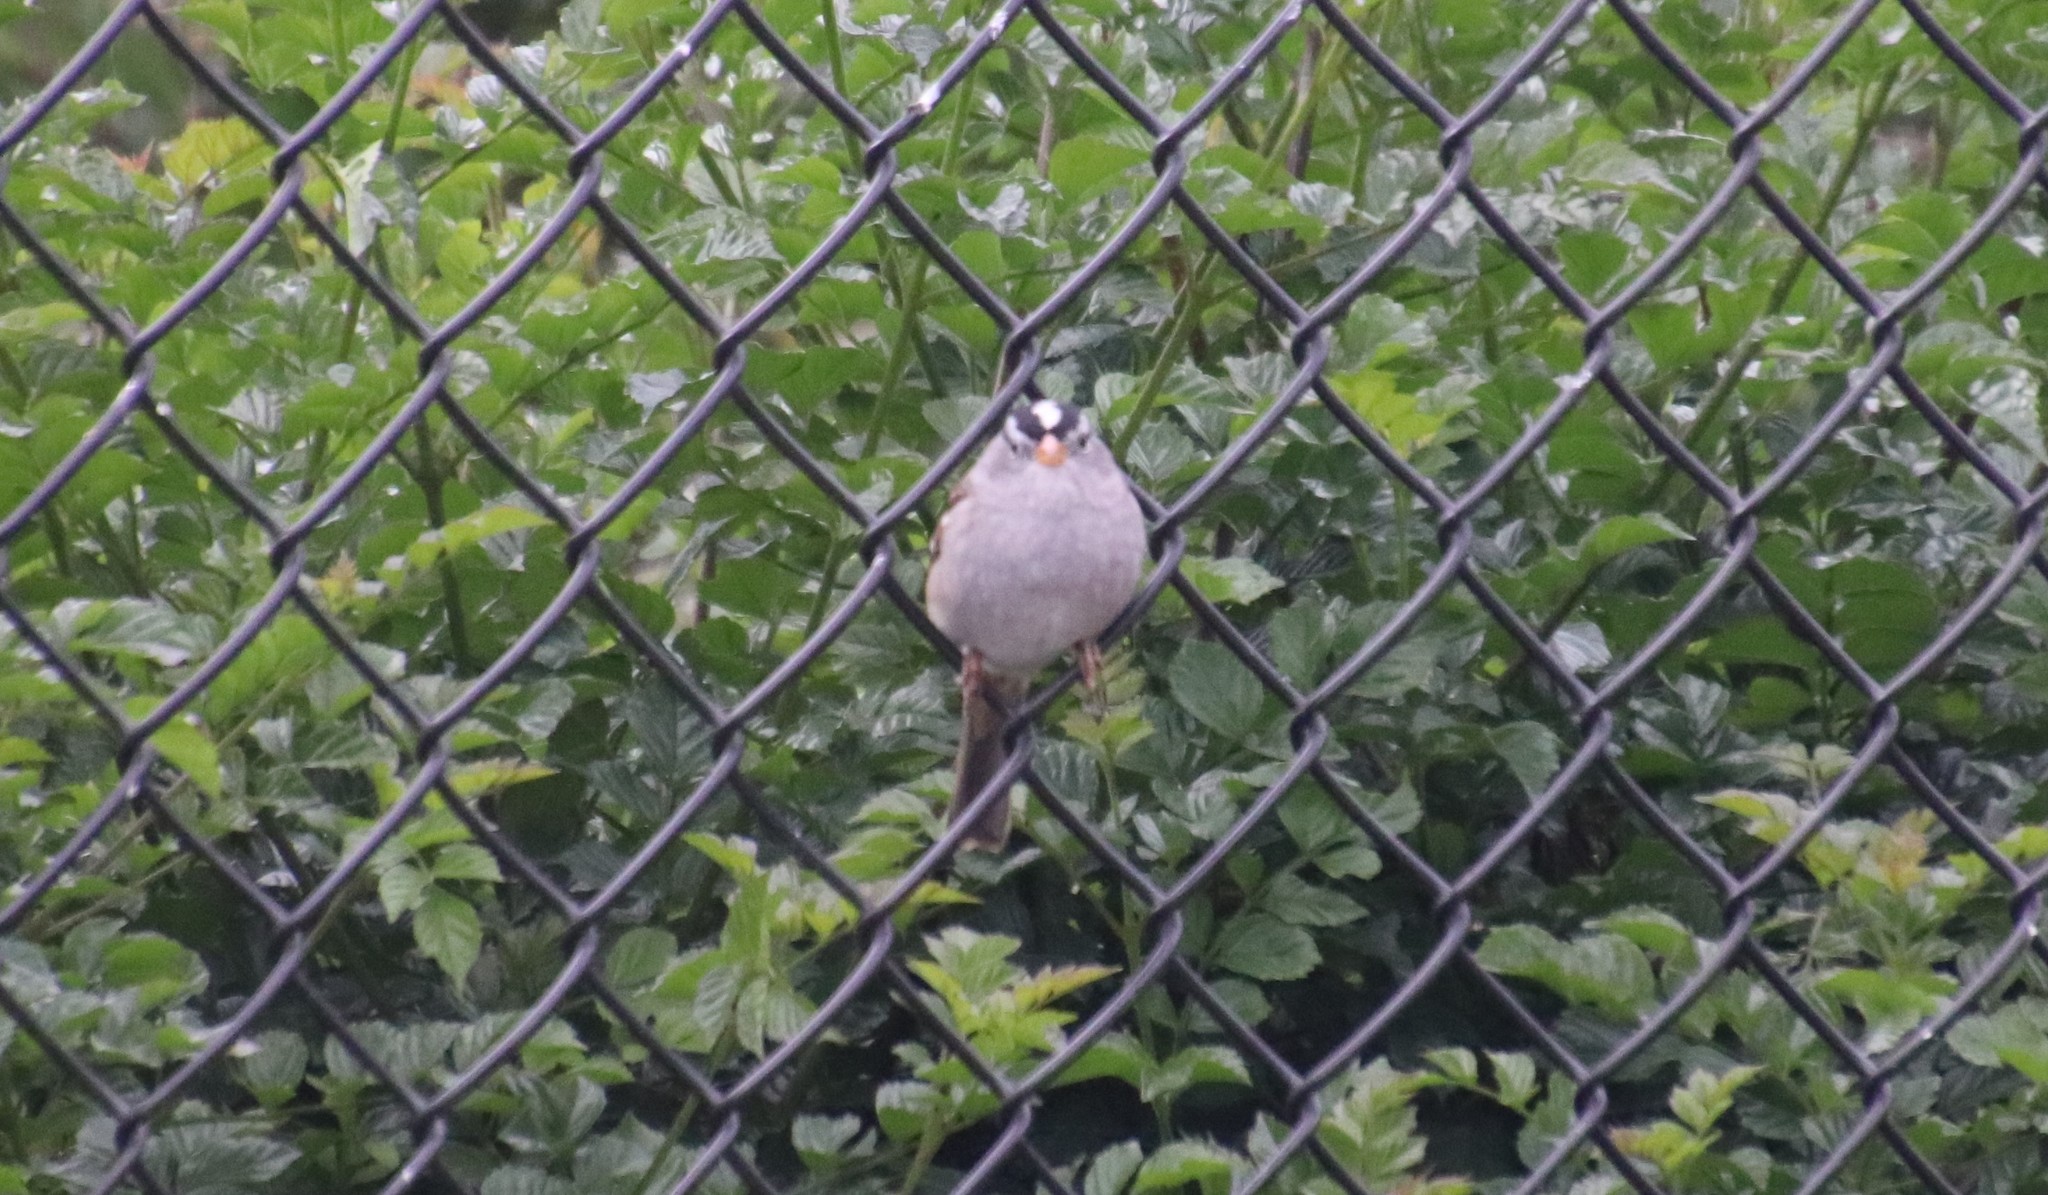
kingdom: Animalia
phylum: Chordata
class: Aves
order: Passeriformes
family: Passerellidae
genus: Zonotrichia
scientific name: Zonotrichia leucophrys
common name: White-crowned sparrow
